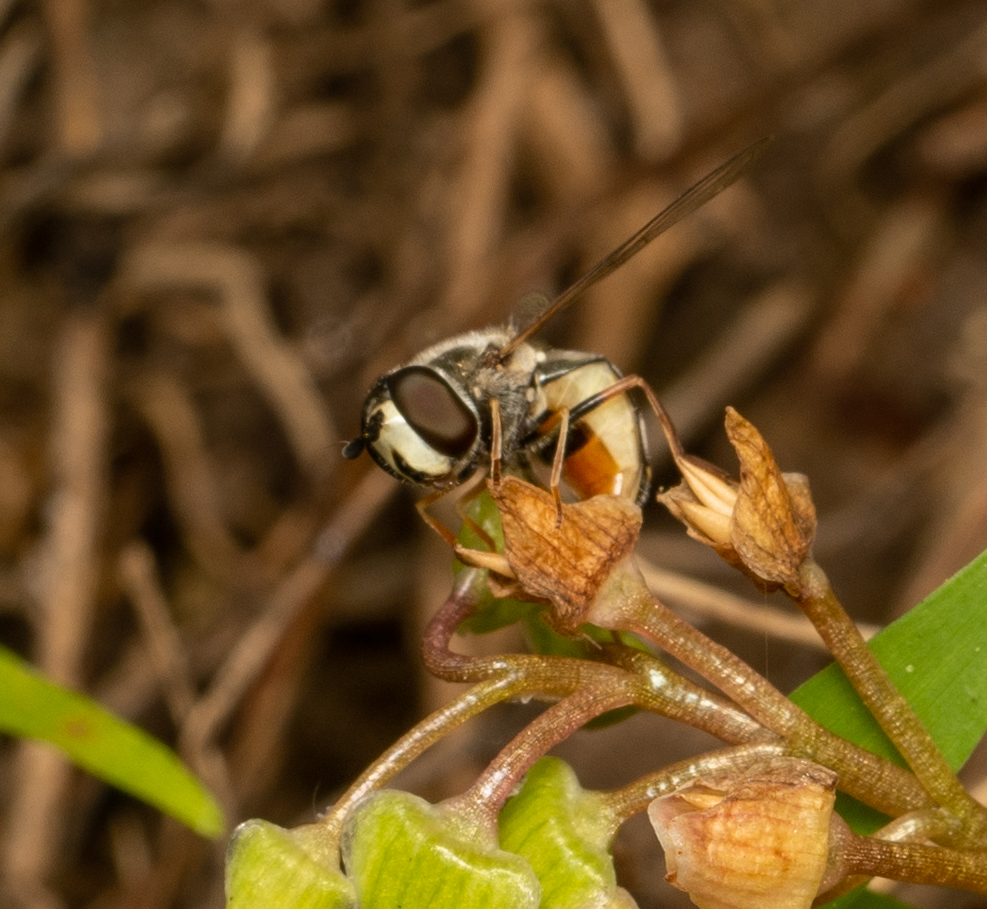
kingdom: Animalia
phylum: Arthropoda
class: Insecta
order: Diptera
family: Syrphidae
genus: Eupeodes
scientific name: Eupeodes volucris
